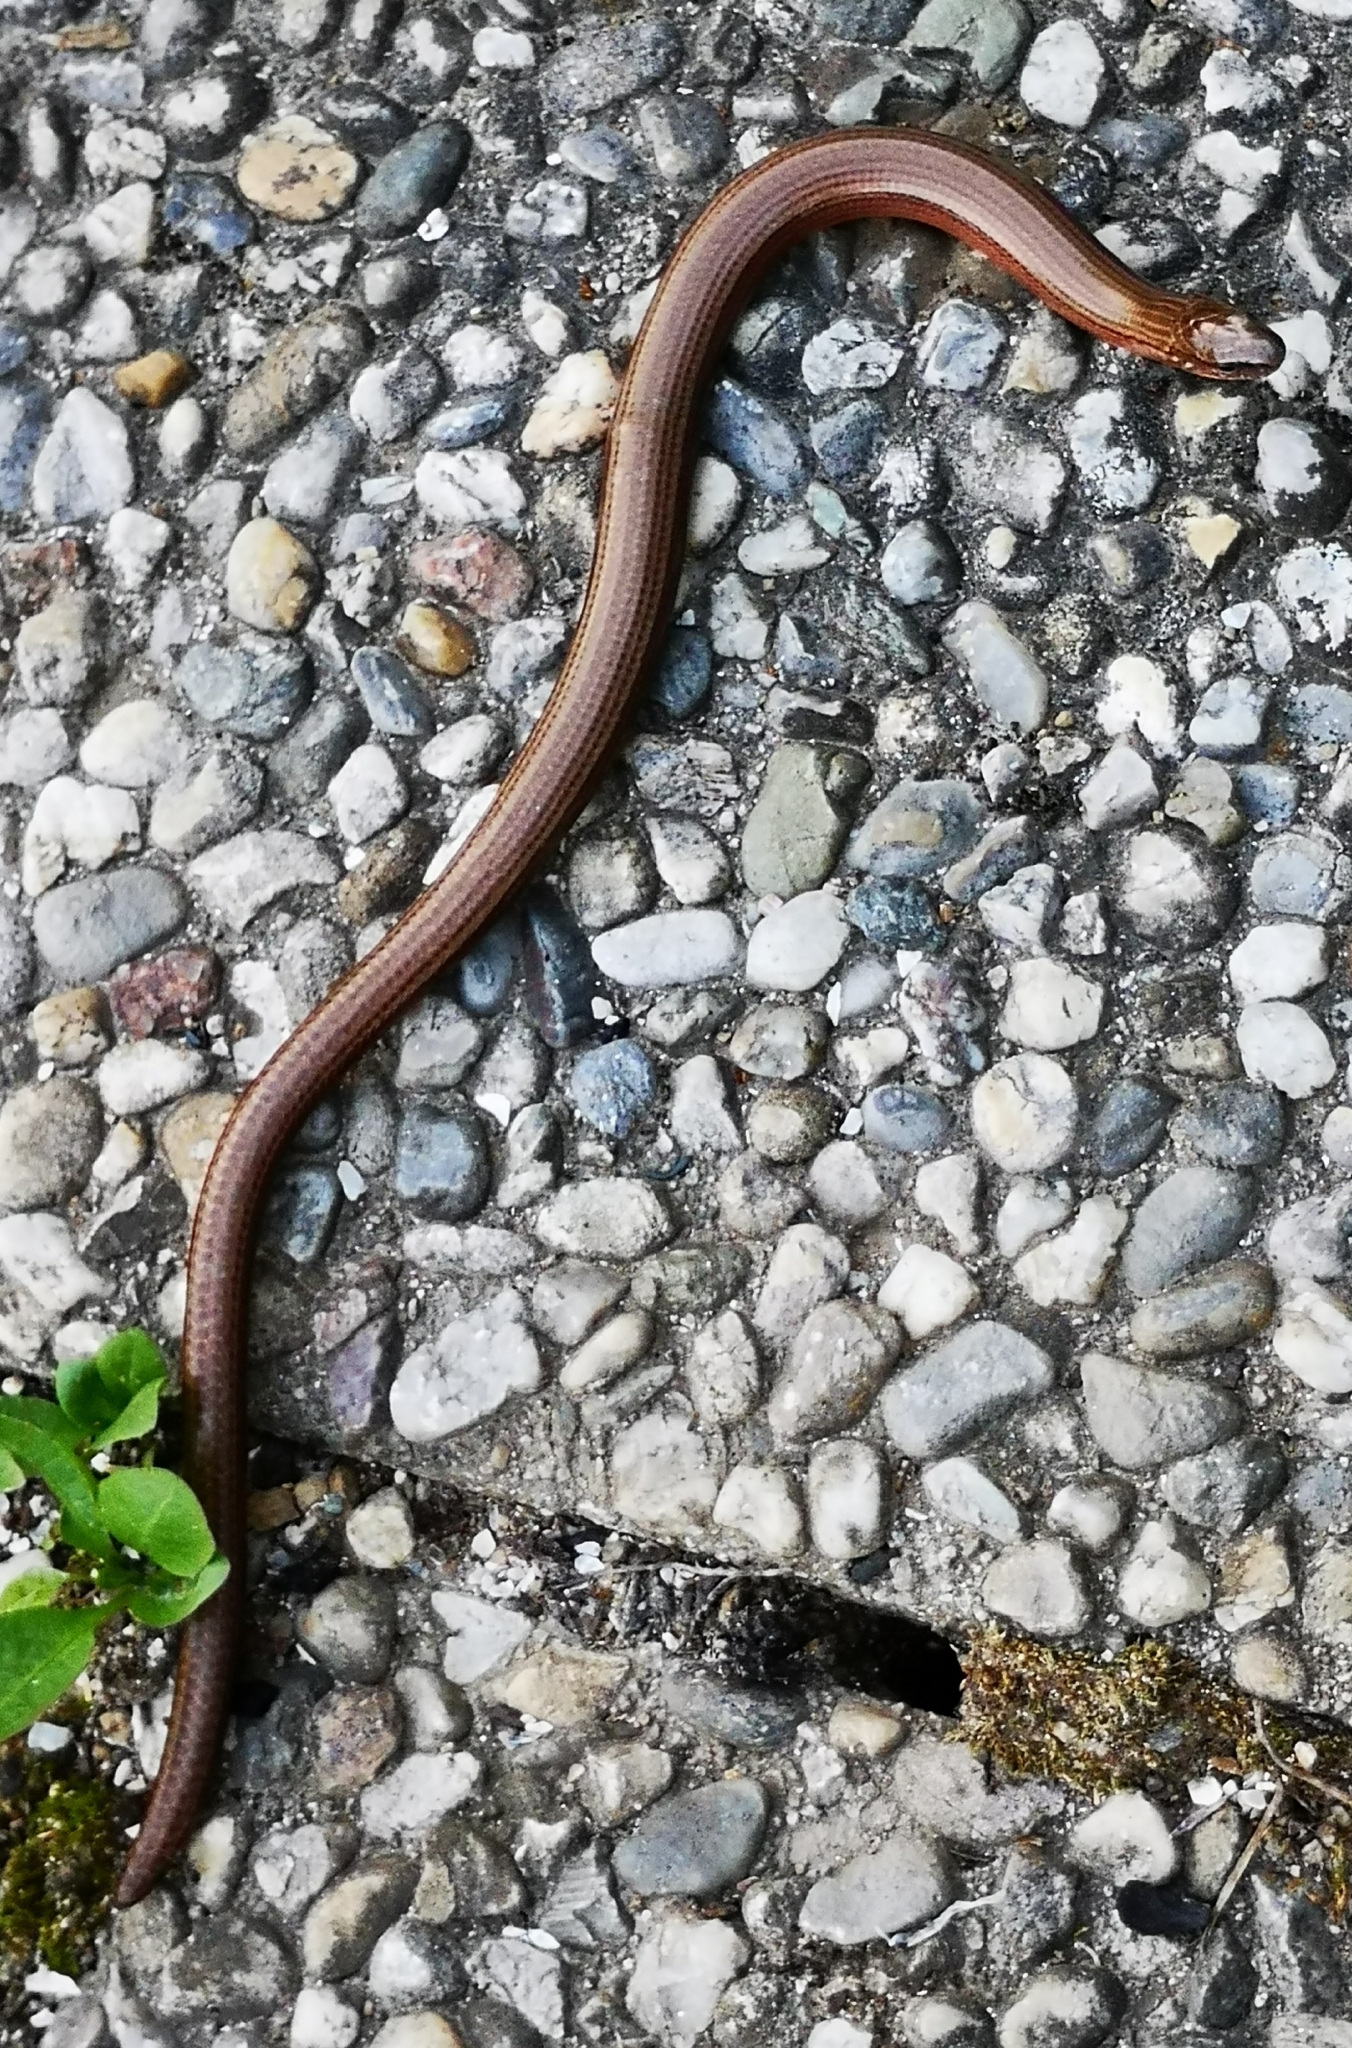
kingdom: Animalia
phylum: Chordata
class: Squamata
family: Anguidae
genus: Anguis
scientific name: Anguis fragilis
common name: Slow worm
